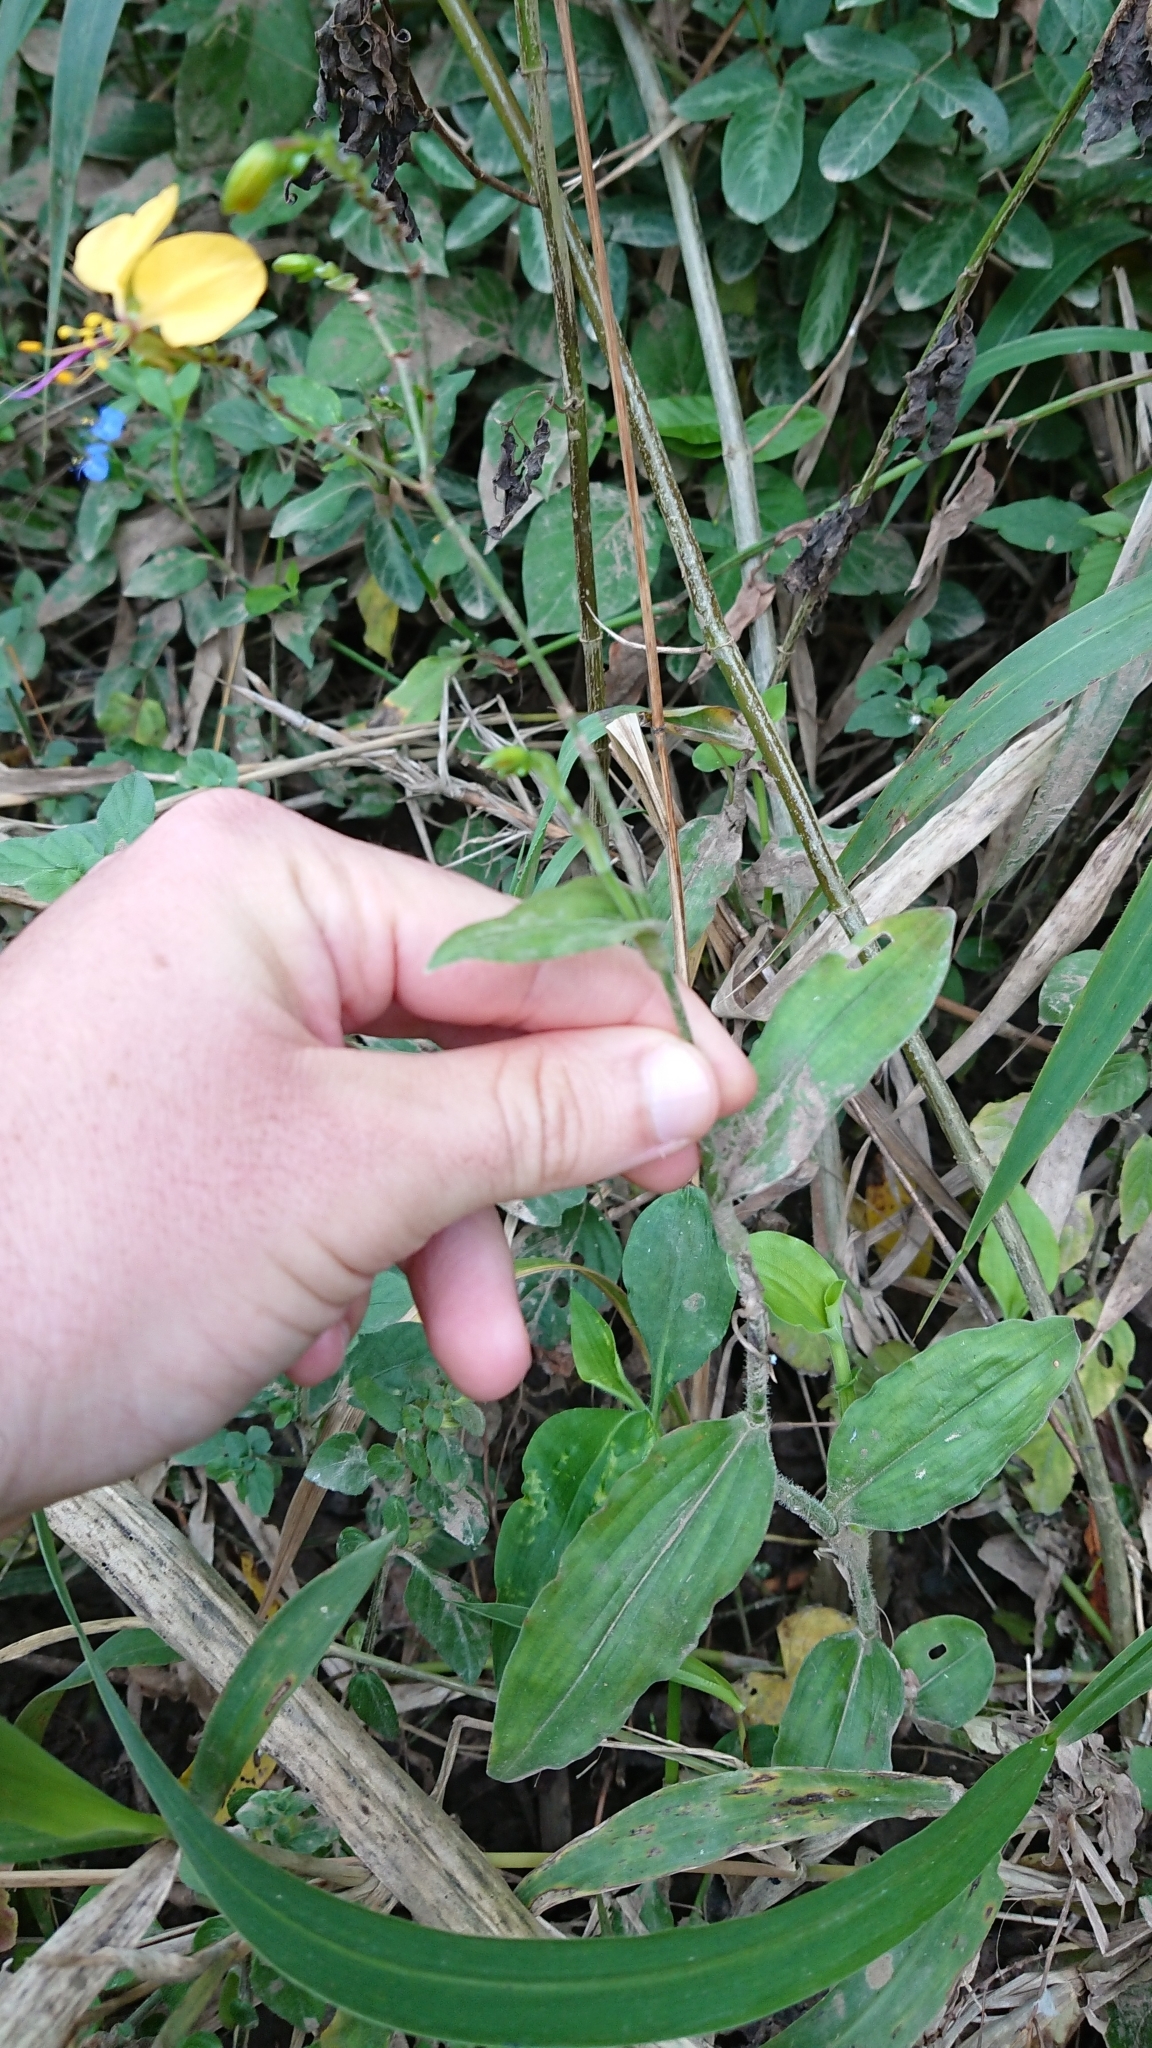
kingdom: Plantae
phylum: Tracheophyta
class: Liliopsida
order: Commelinales
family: Commelinaceae
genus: Aneilema
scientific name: Aneilema aequinoctiale
